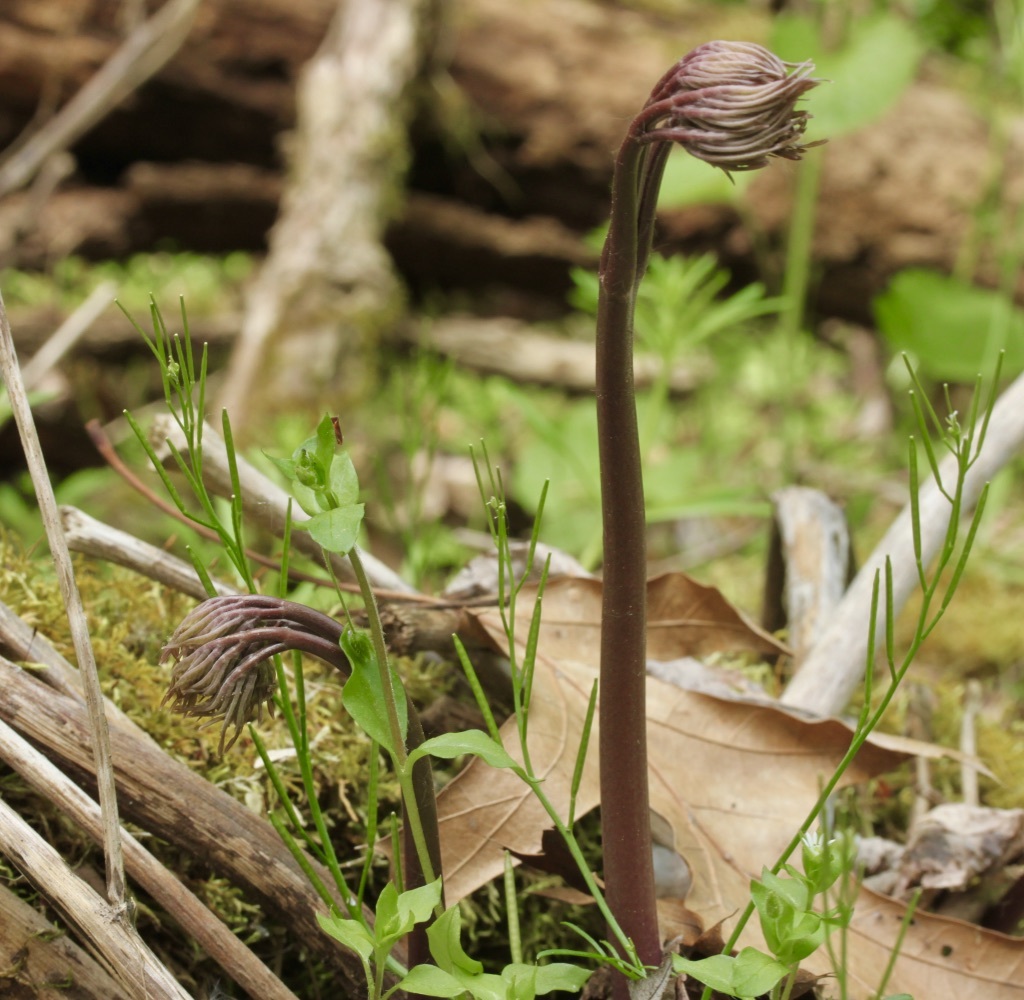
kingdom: Plantae
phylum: Tracheophyta
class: Magnoliopsida
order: Ranunculales
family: Berberidaceae
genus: Caulophyllum
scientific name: Caulophyllum thalictroides
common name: Blue cohosh
